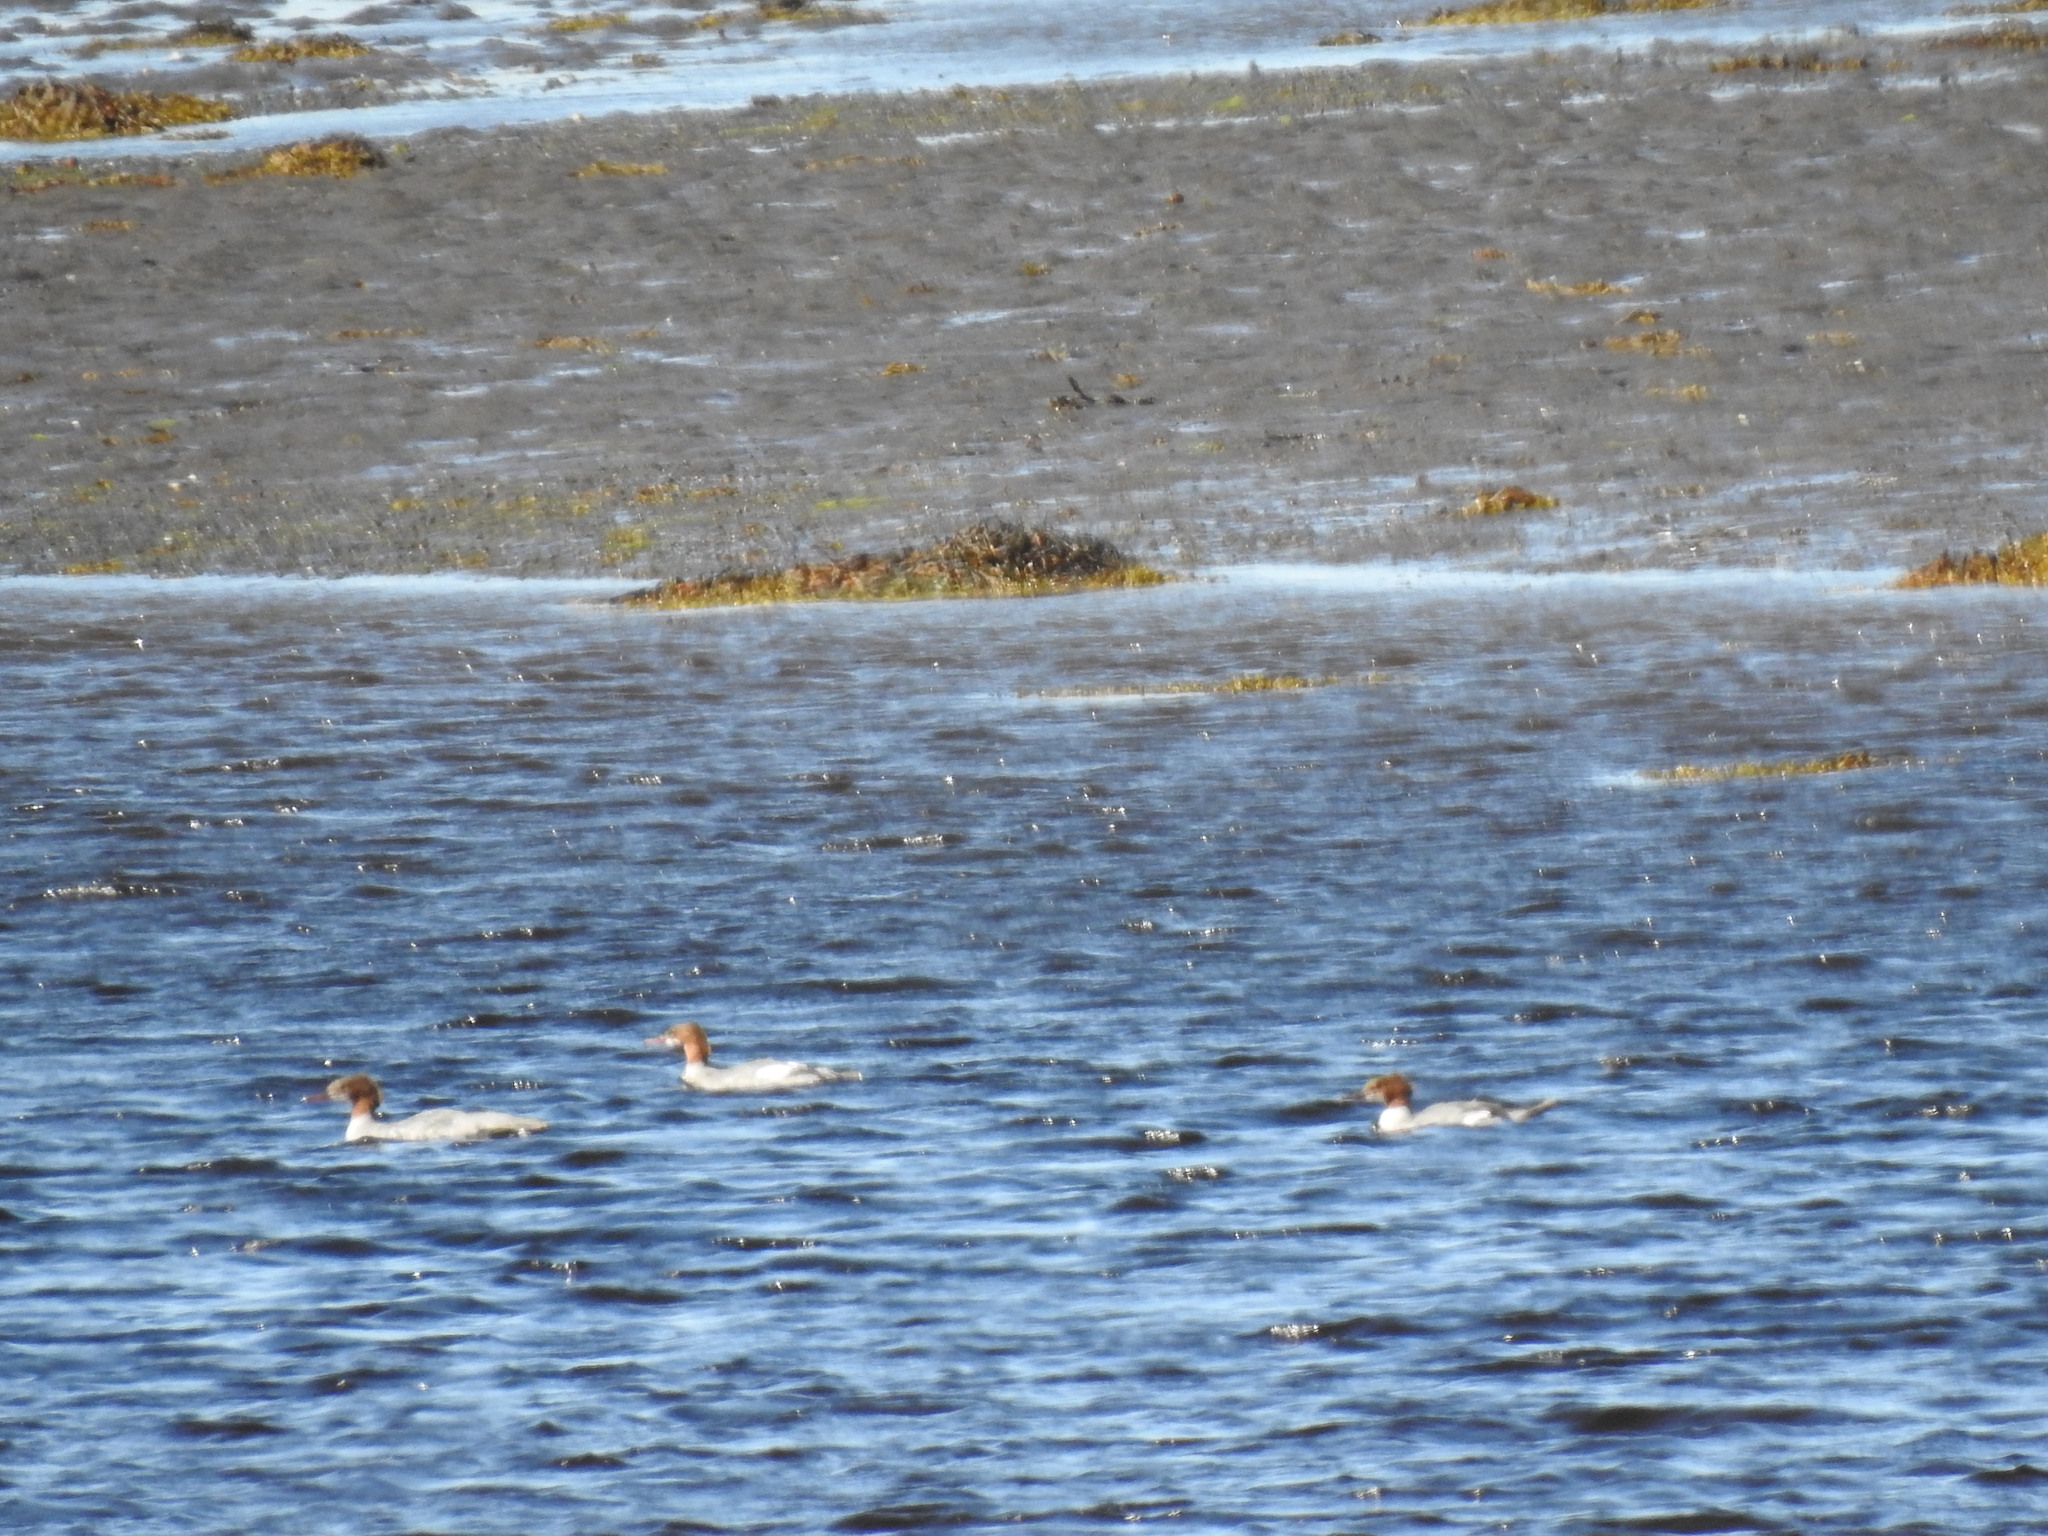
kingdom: Animalia
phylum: Chordata
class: Aves
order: Anseriformes
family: Anatidae
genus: Mergus
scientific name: Mergus merganser
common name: Common merganser
